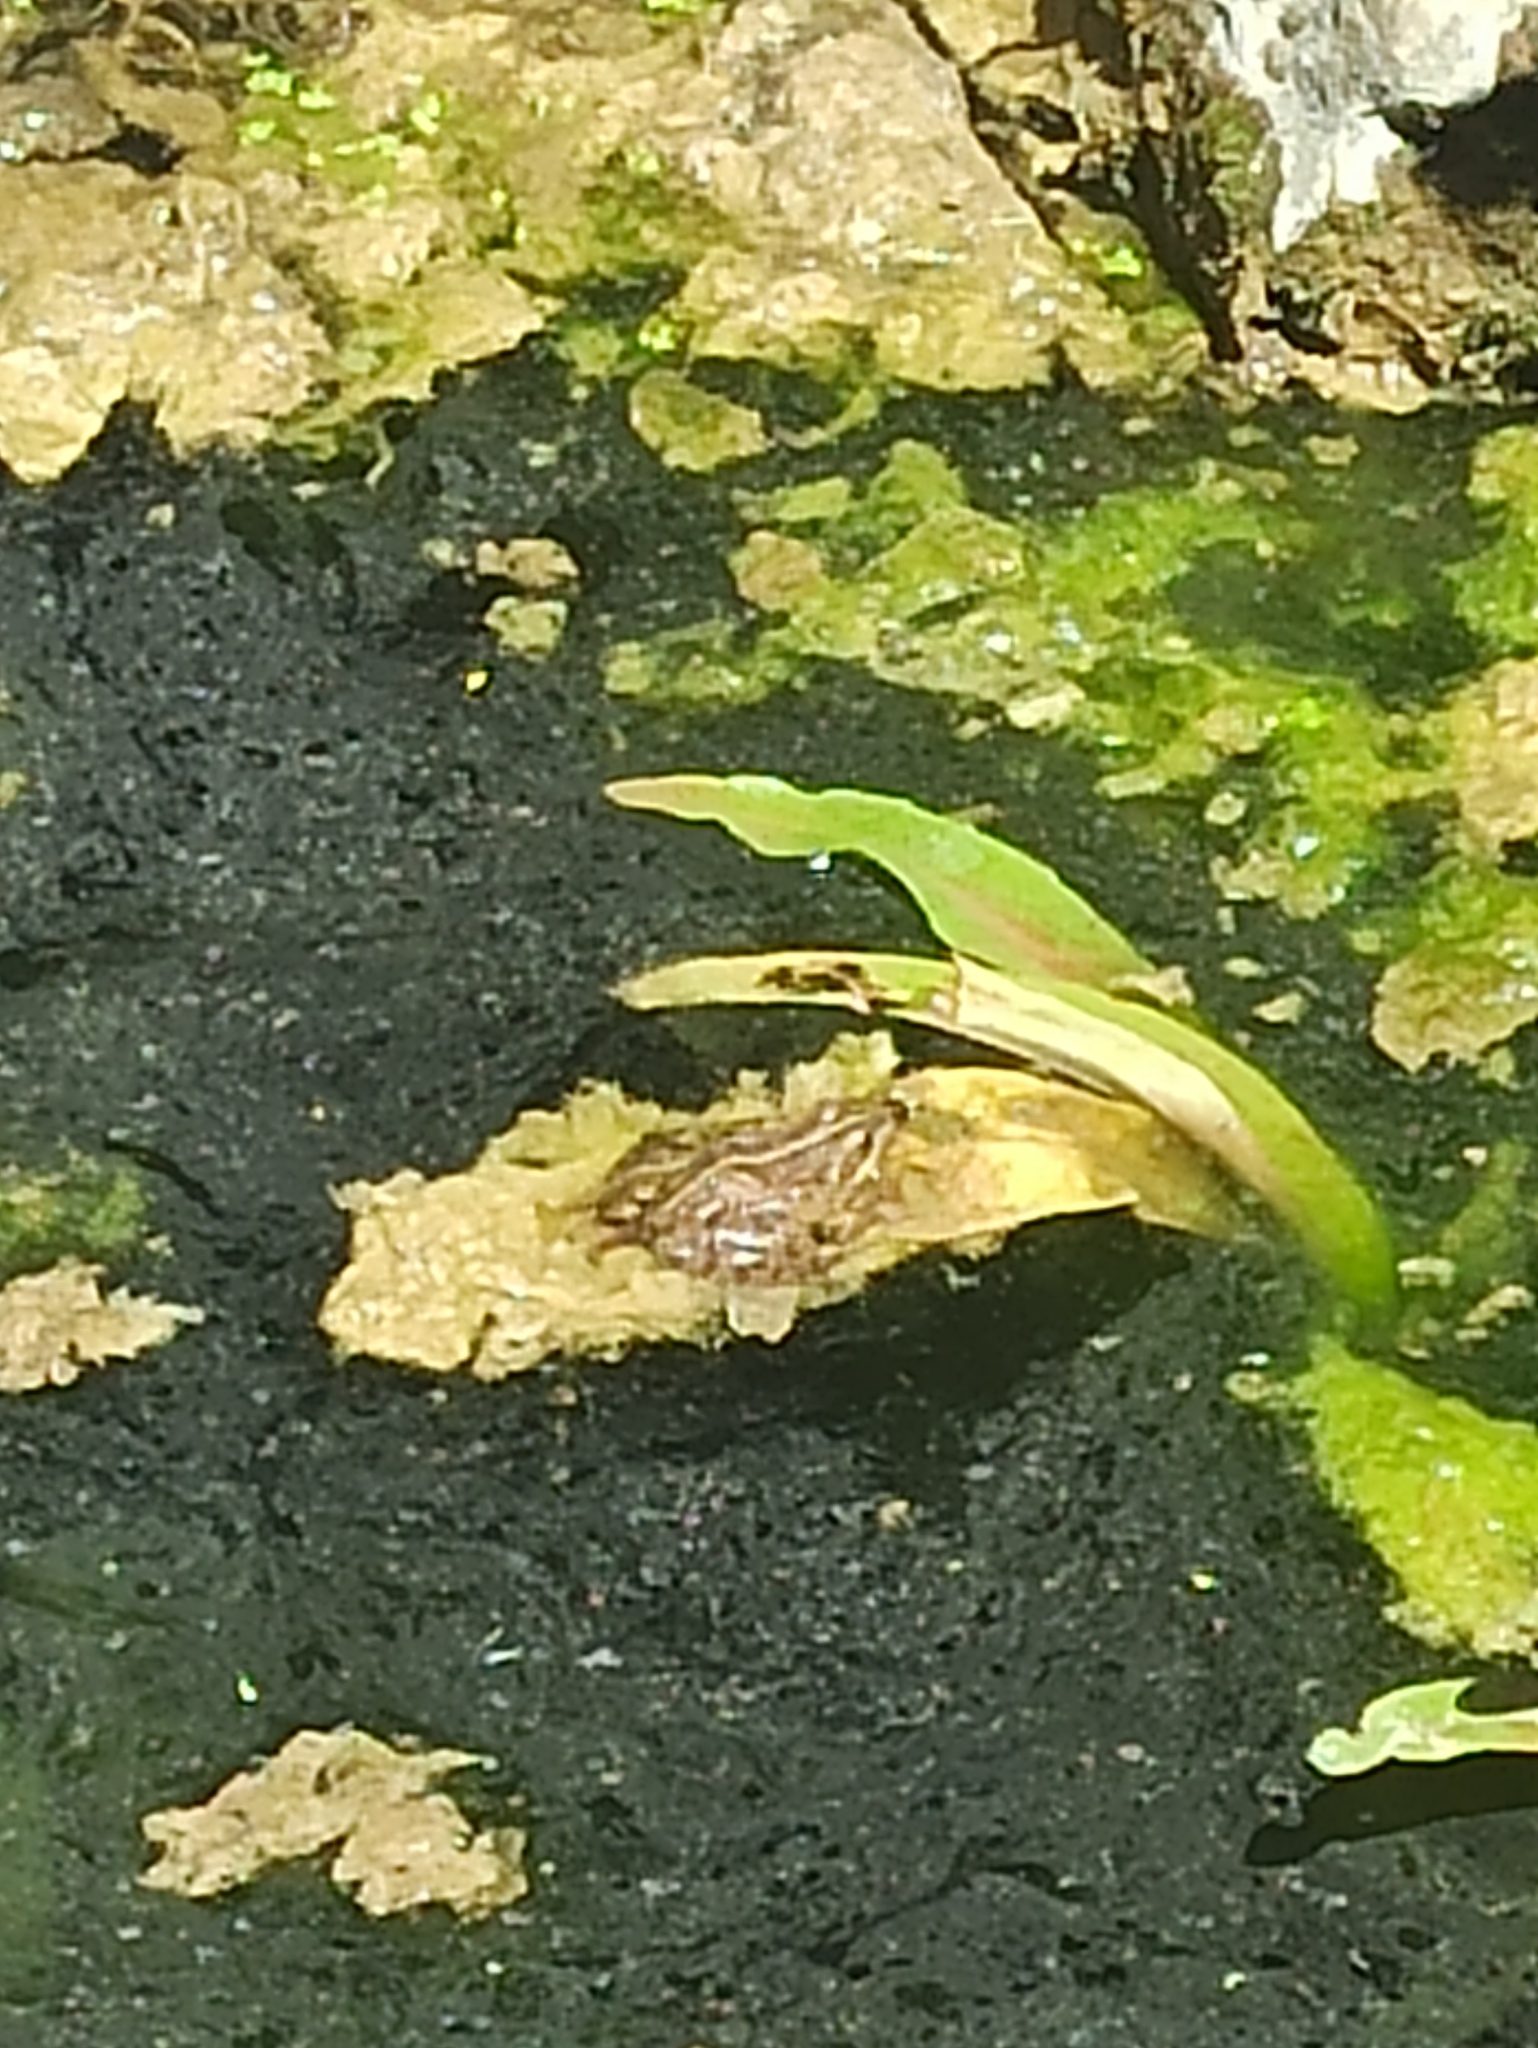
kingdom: Animalia
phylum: Chordata
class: Amphibia
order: Anura
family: Ranidae
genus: Pelophylax
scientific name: Pelophylax perezi
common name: Perez's frog
